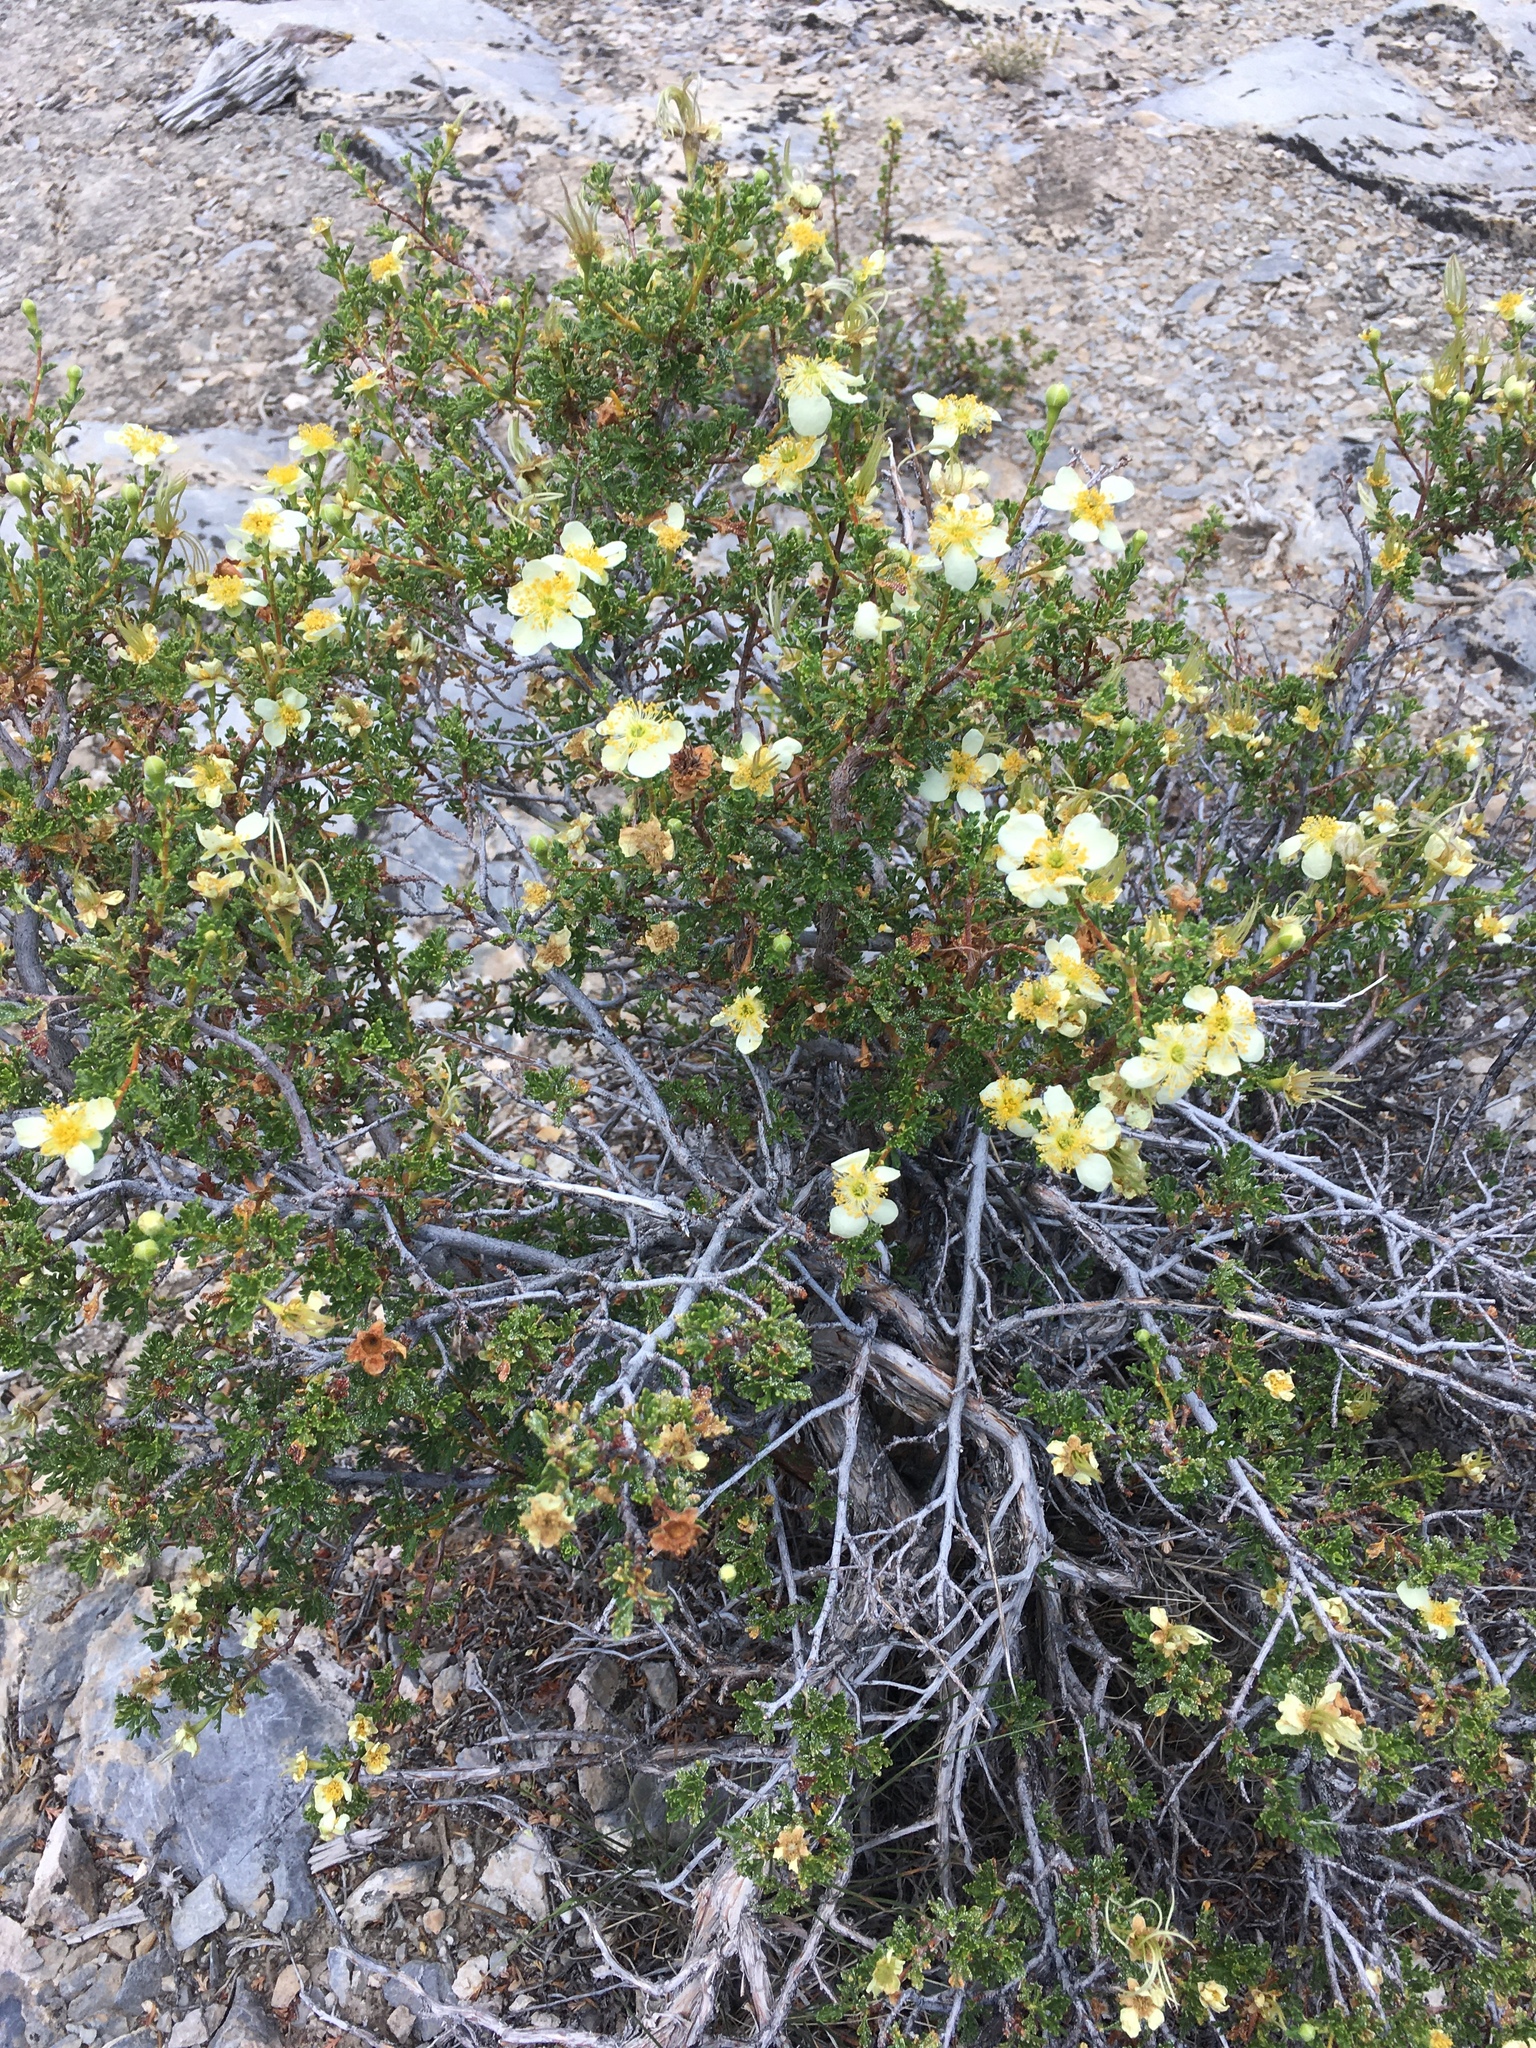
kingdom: Plantae
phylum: Tracheophyta
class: Magnoliopsida
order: Rosales
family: Rosaceae
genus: Purshia
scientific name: Purshia stansburiana
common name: Stansbury's cliffrose
